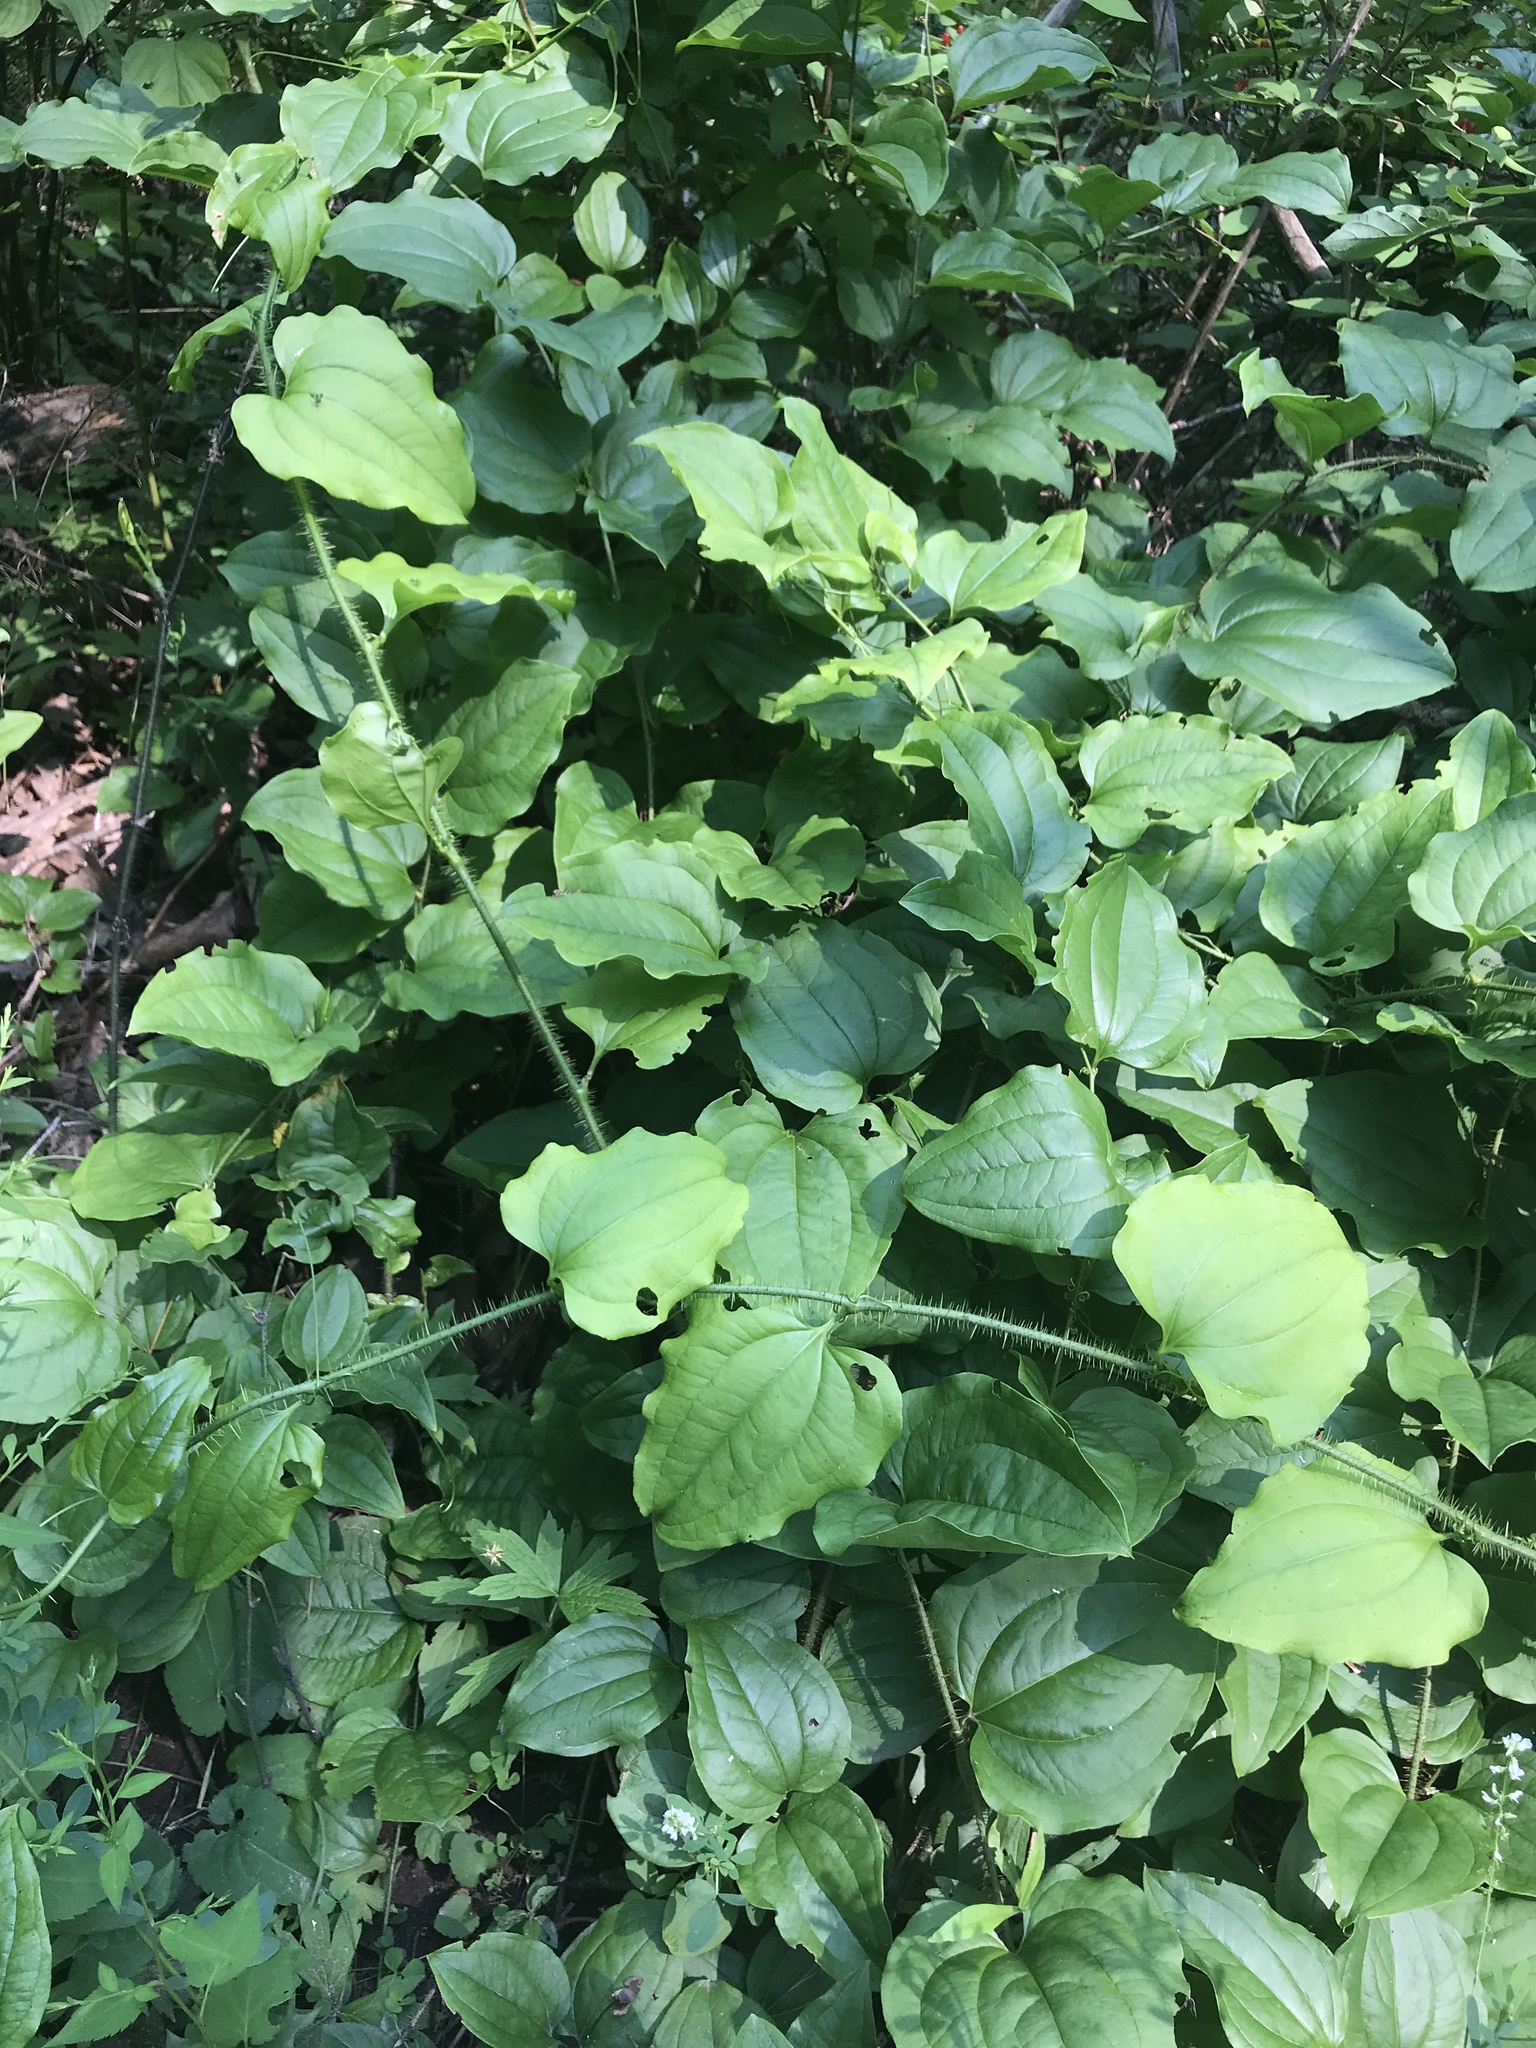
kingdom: Plantae
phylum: Tracheophyta
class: Liliopsida
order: Liliales
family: Smilacaceae
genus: Smilax
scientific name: Smilax tamnoides
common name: Hellfetter
